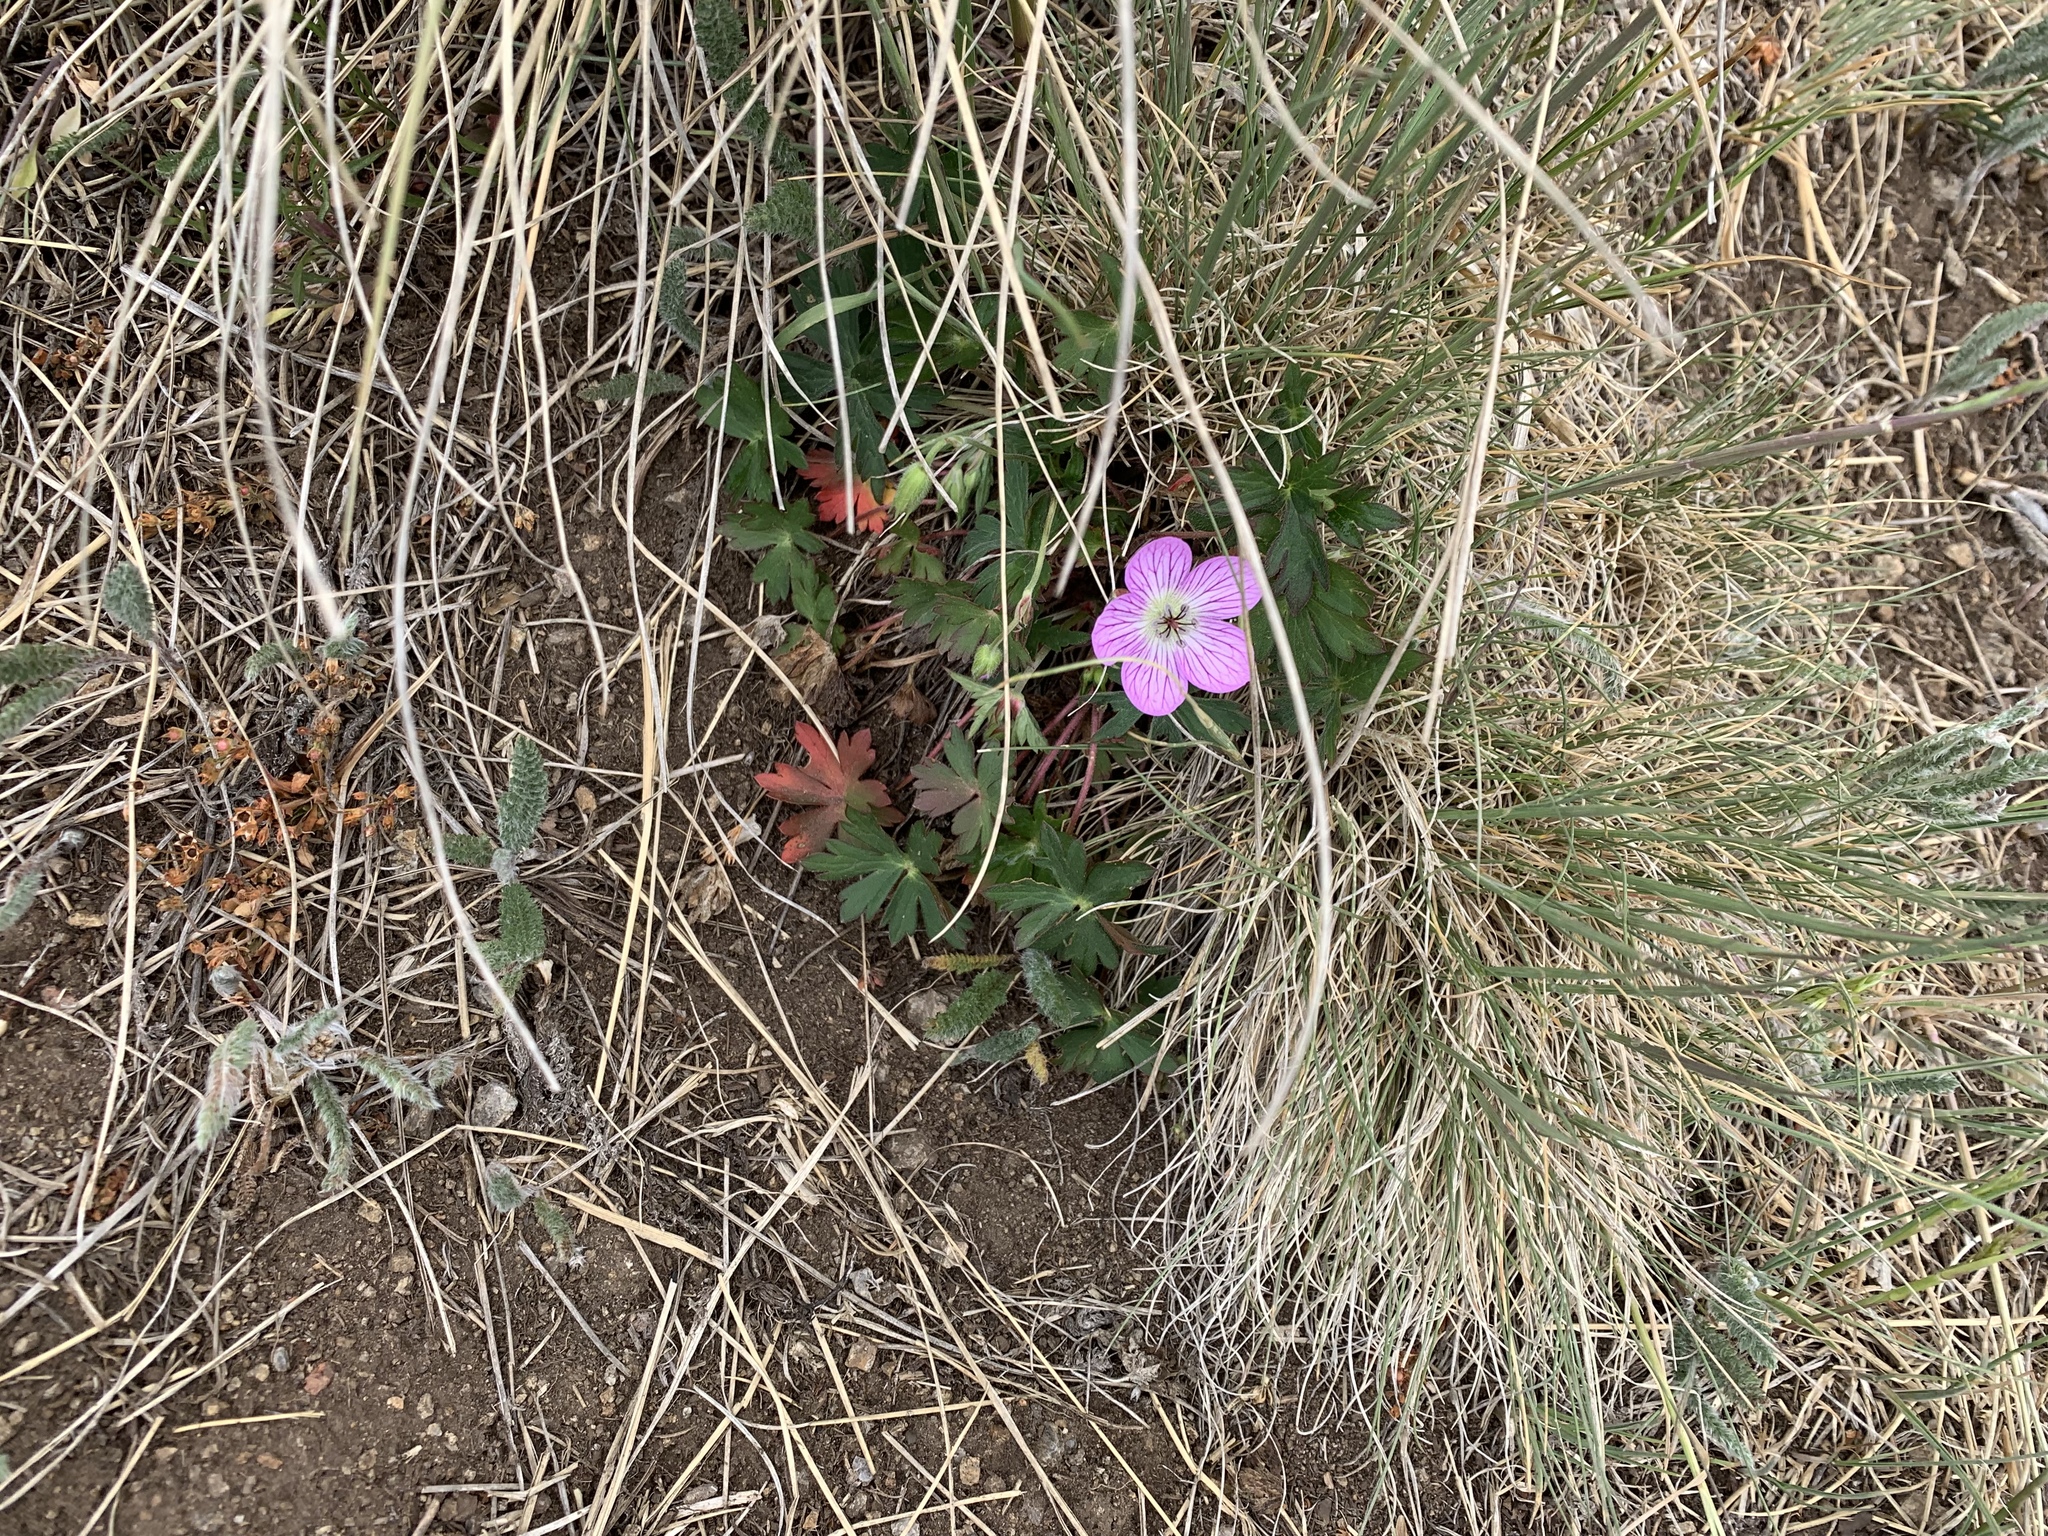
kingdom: Plantae
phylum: Tracheophyta
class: Magnoliopsida
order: Geraniales
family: Geraniaceae
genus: Geranium
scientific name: Geranium richardsonii
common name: Richardson's crane's-bill
